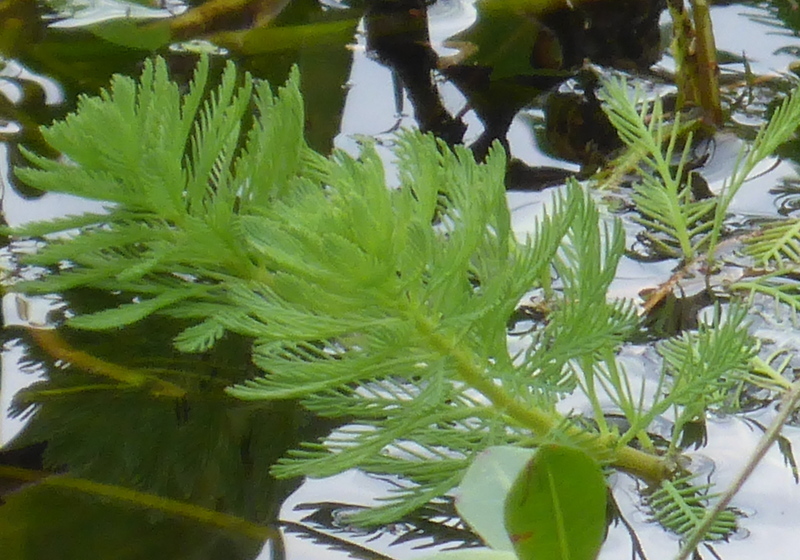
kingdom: Plantae
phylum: Tracheophyta
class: Magnoliopsida
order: Saxifragales
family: Haloragaceae
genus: Myriophyllum
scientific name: Myriophyllum aquaticum
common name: Parrot's feather
